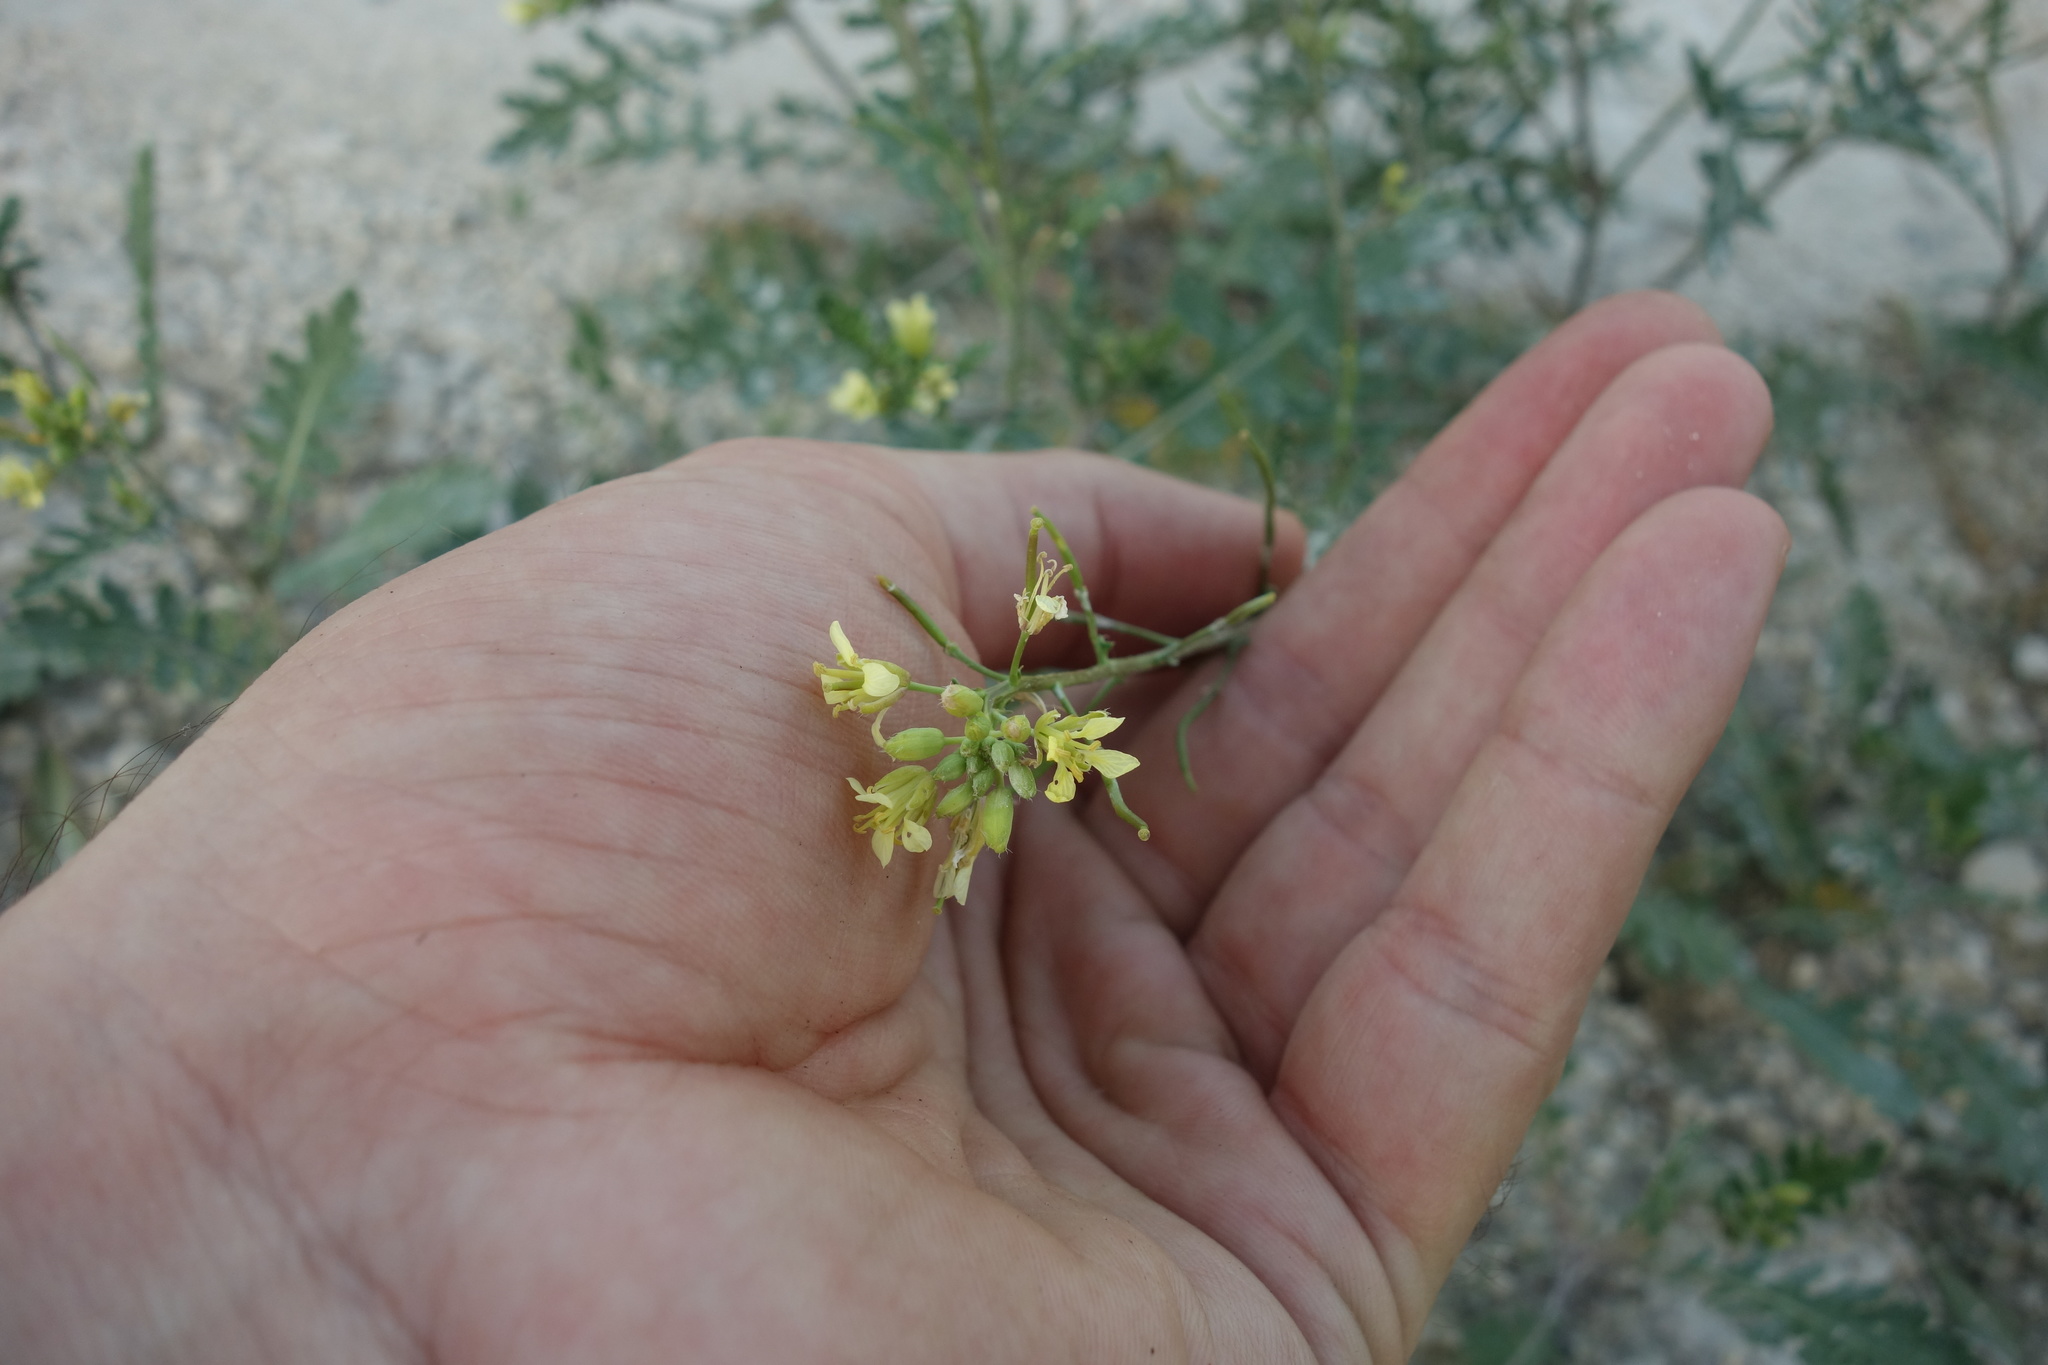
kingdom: Plantae
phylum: Tracheophyta
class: Magnoliopsida
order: Brassicales
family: Brassicaceae
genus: Erucastrum
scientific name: Erucastrum gallicum
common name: Hairy rocket
